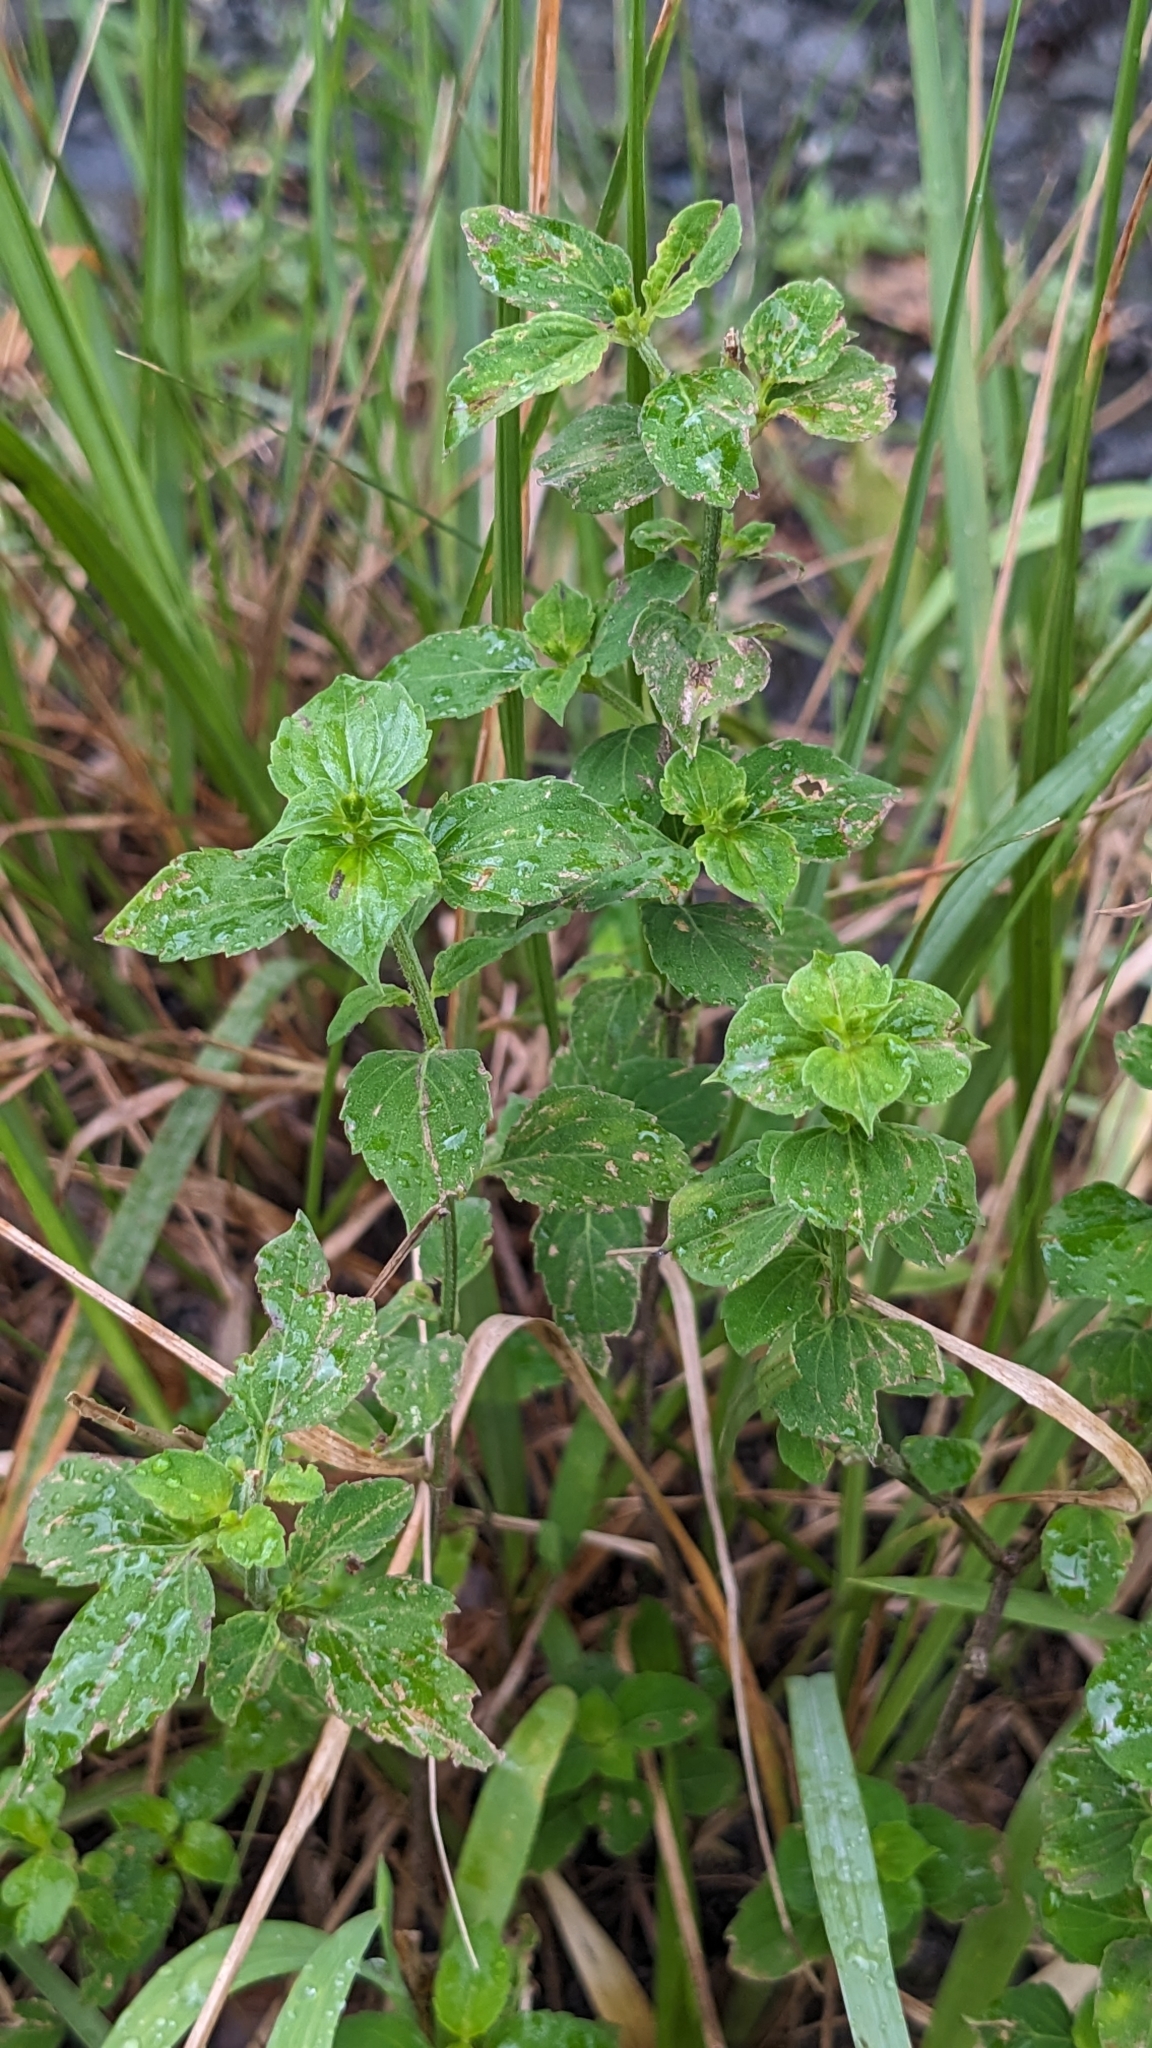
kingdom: Plantae
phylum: Tracheophyta
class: Magnoliopsida
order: Lamiales
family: Lamiaceae
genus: Mosla
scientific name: Mosla scabra
